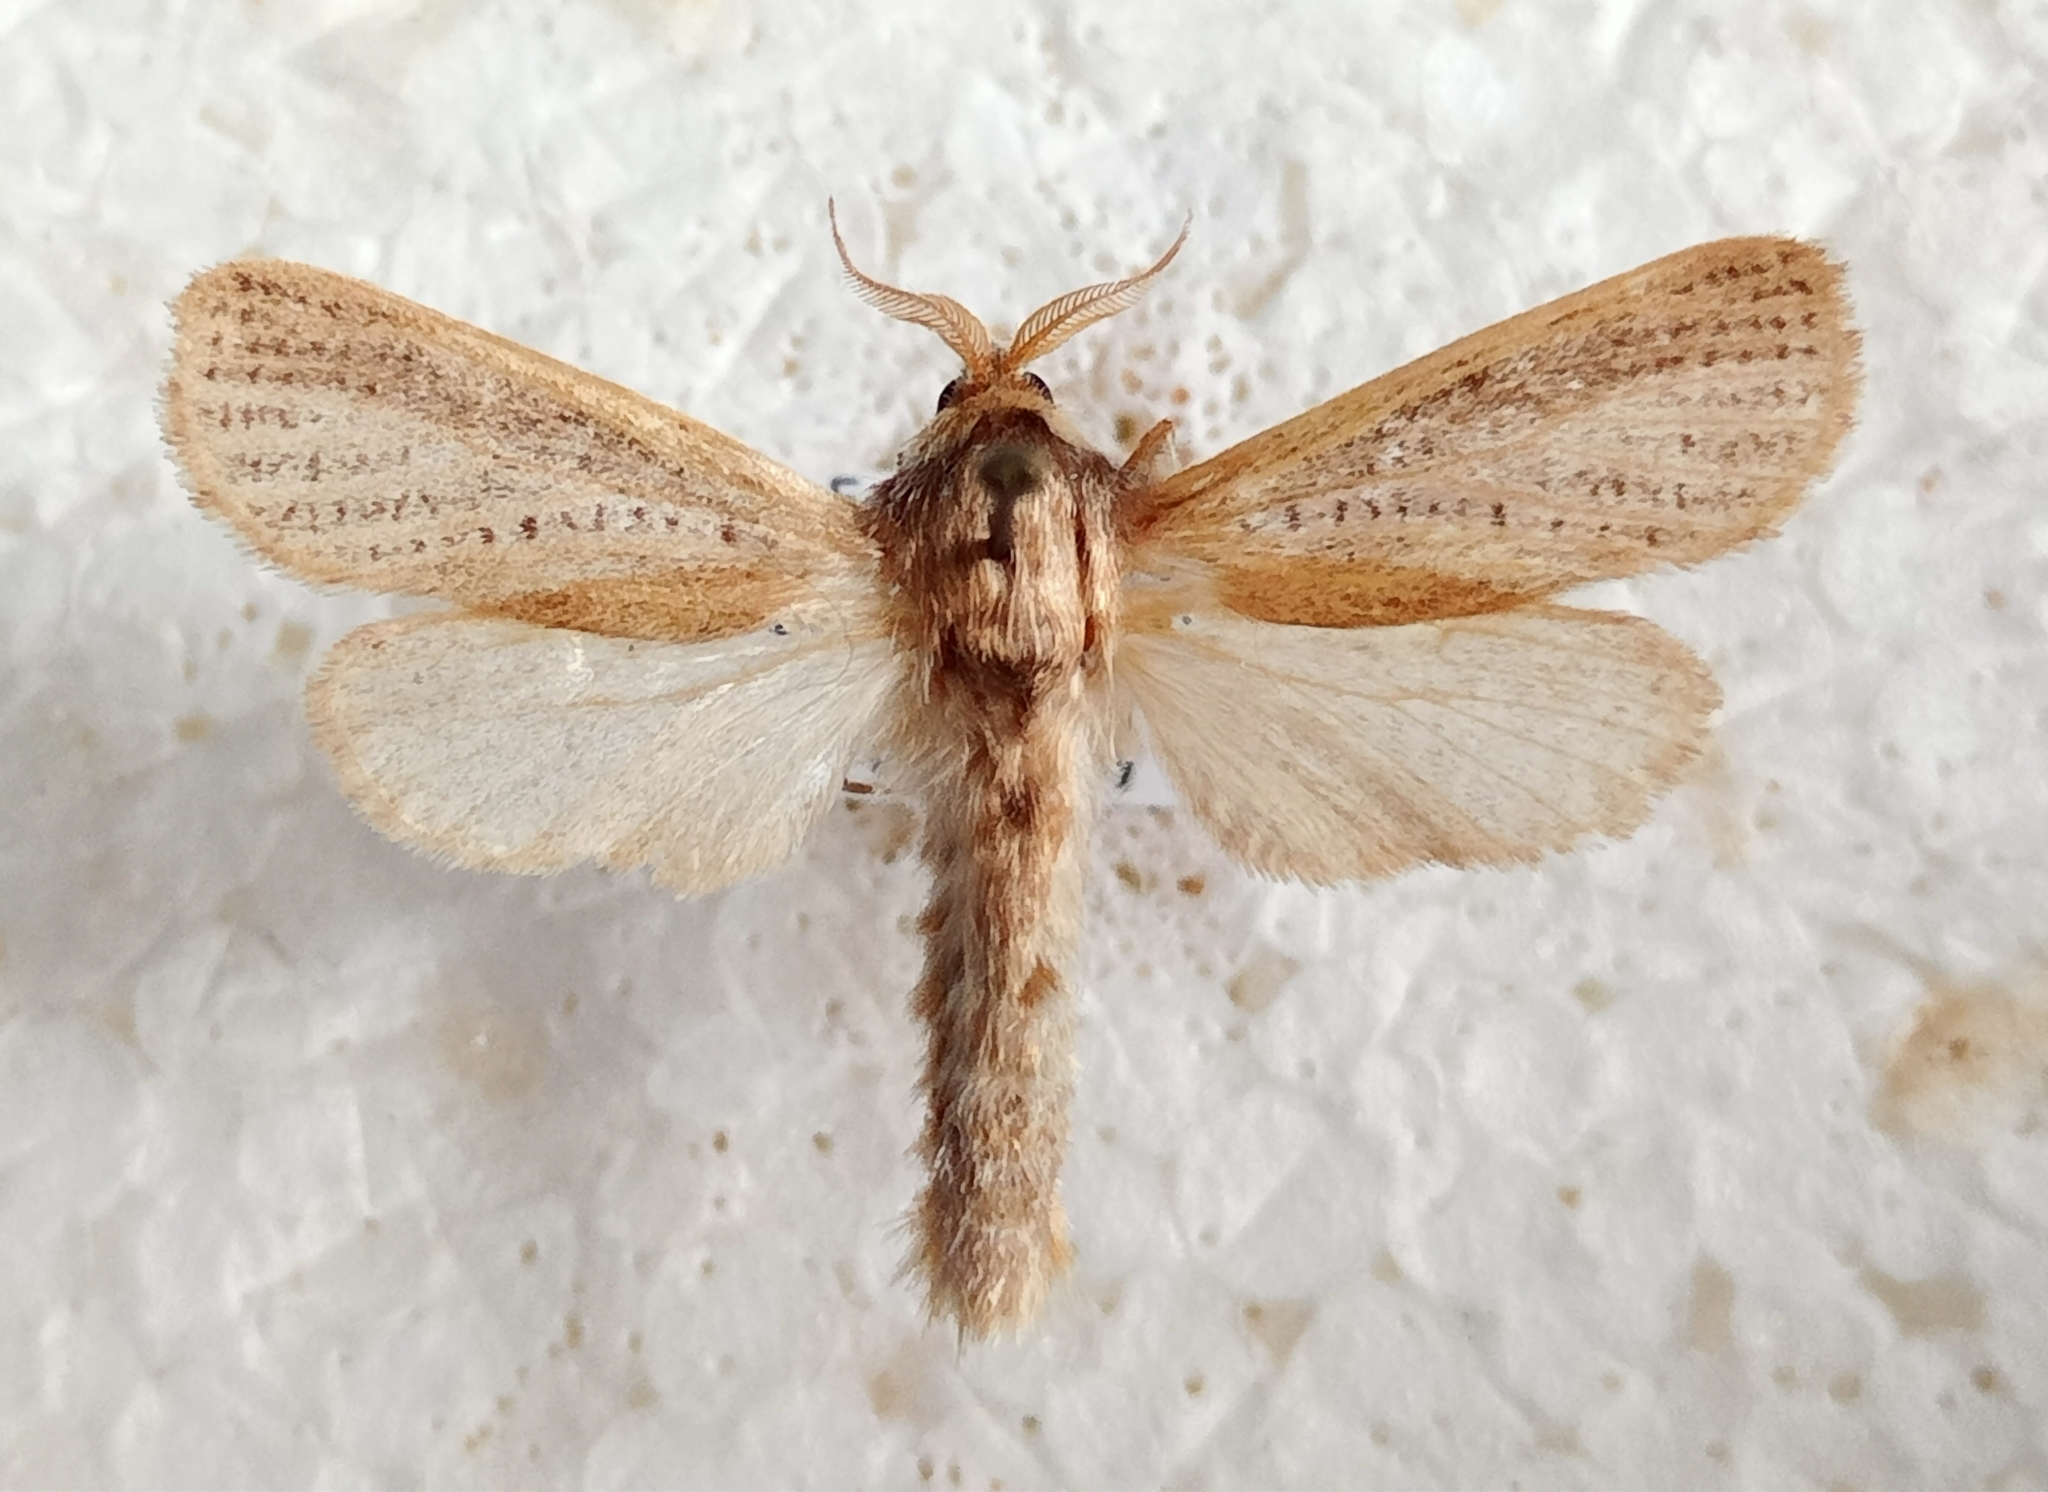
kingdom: Animalia
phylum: Arthropoda
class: Insecta
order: Lepidoptera
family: Cossidae
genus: Phragmataecia
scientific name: Phragmataecia castaneae
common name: Reed leopard
